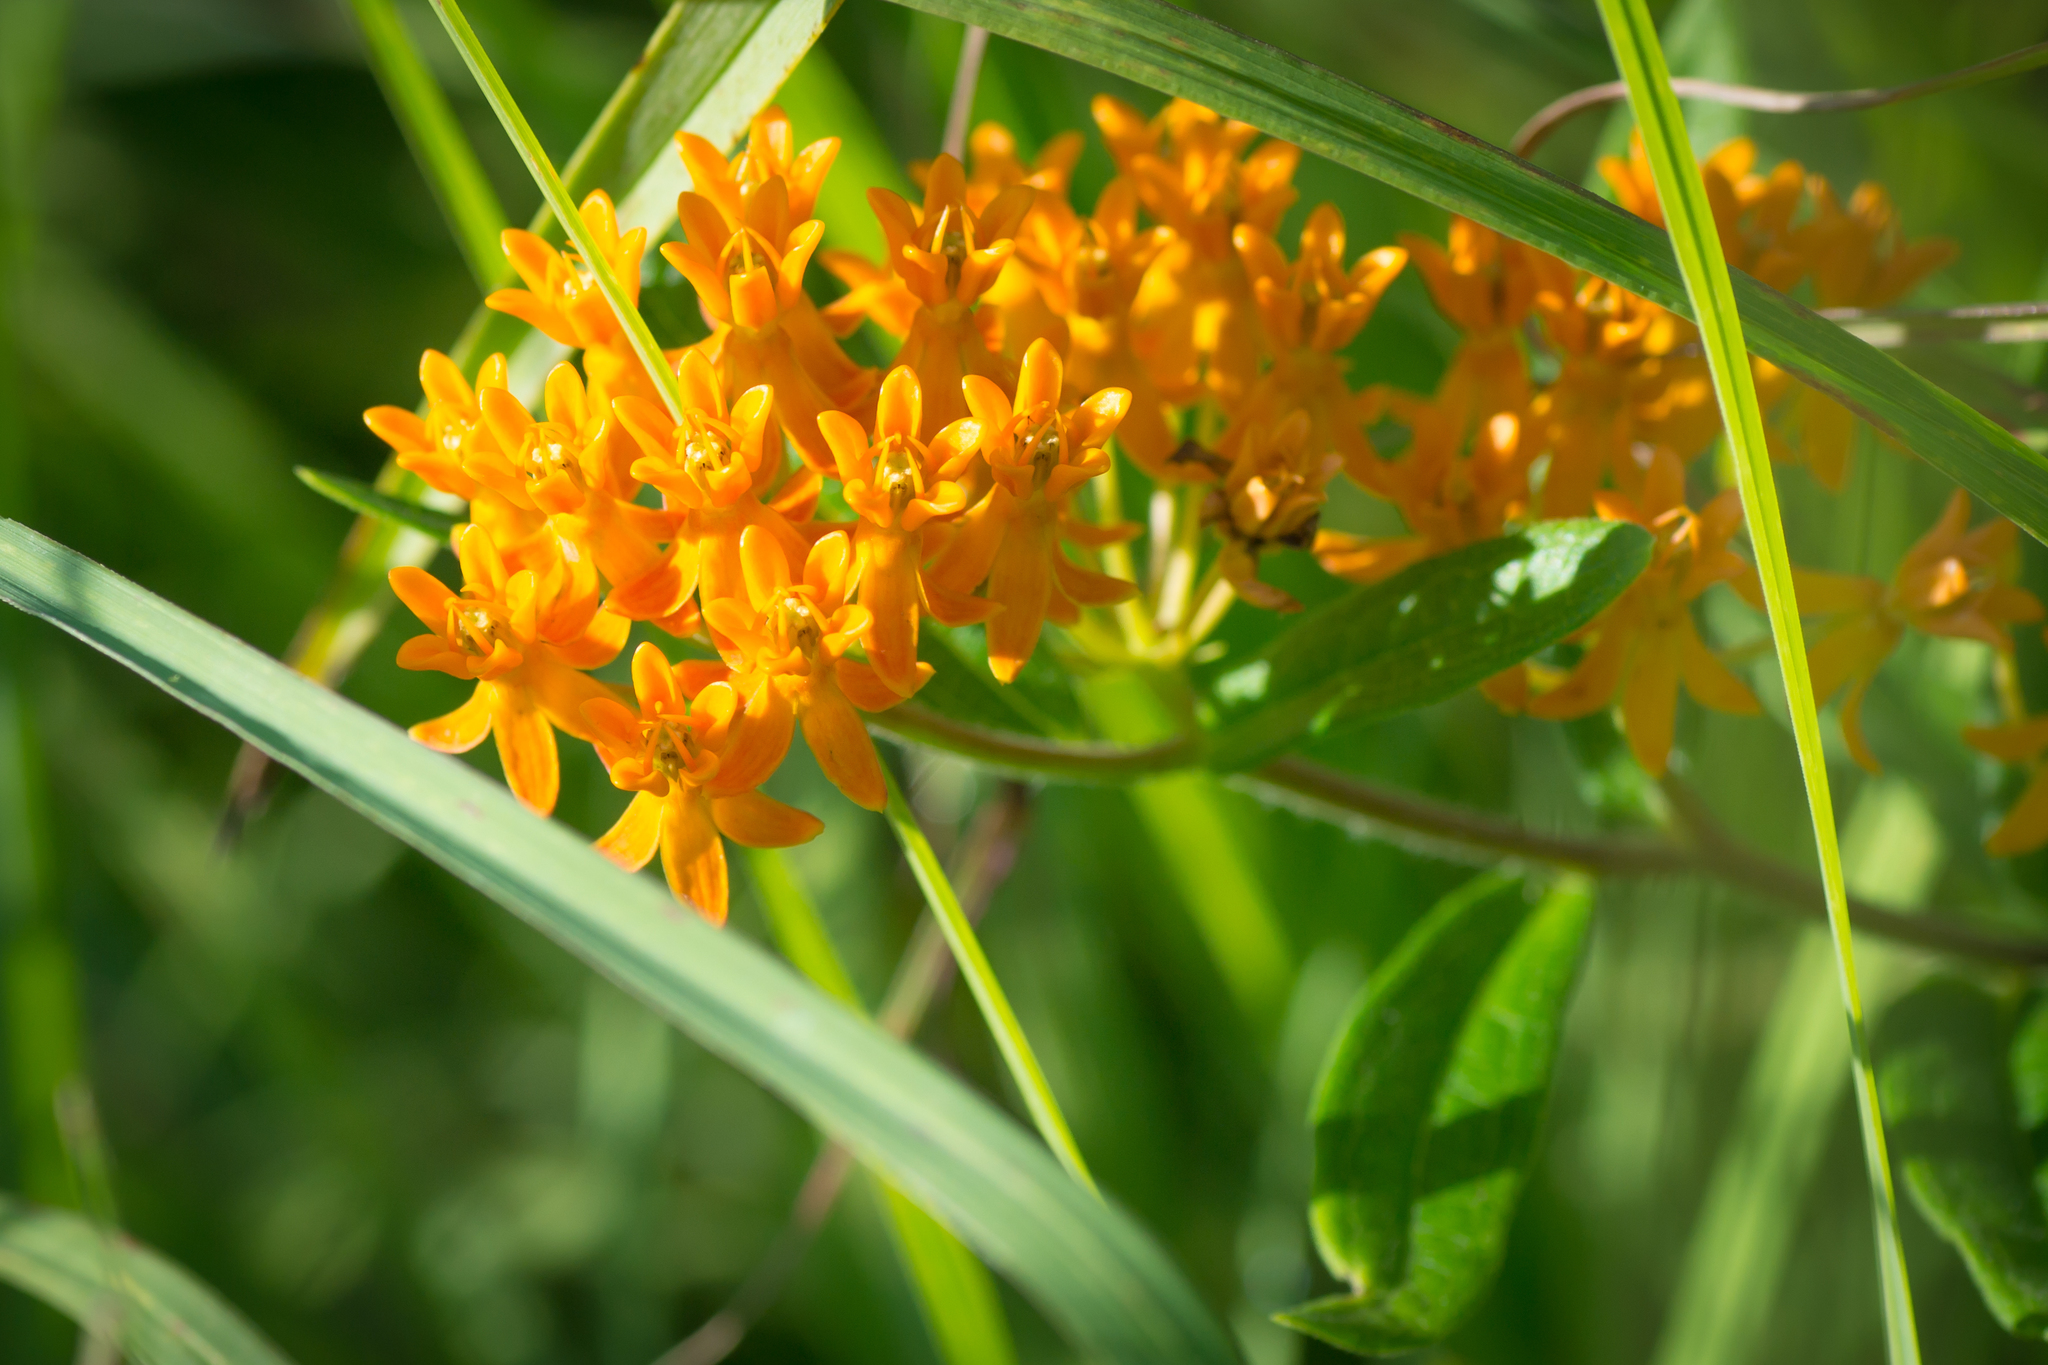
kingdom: Plantae
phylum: Tracheophyta
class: Magnoliopsida
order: Gentianales
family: Apocynaceae
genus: Asclepias
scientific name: Asclepias tuberosa
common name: Butterfly milkweed
